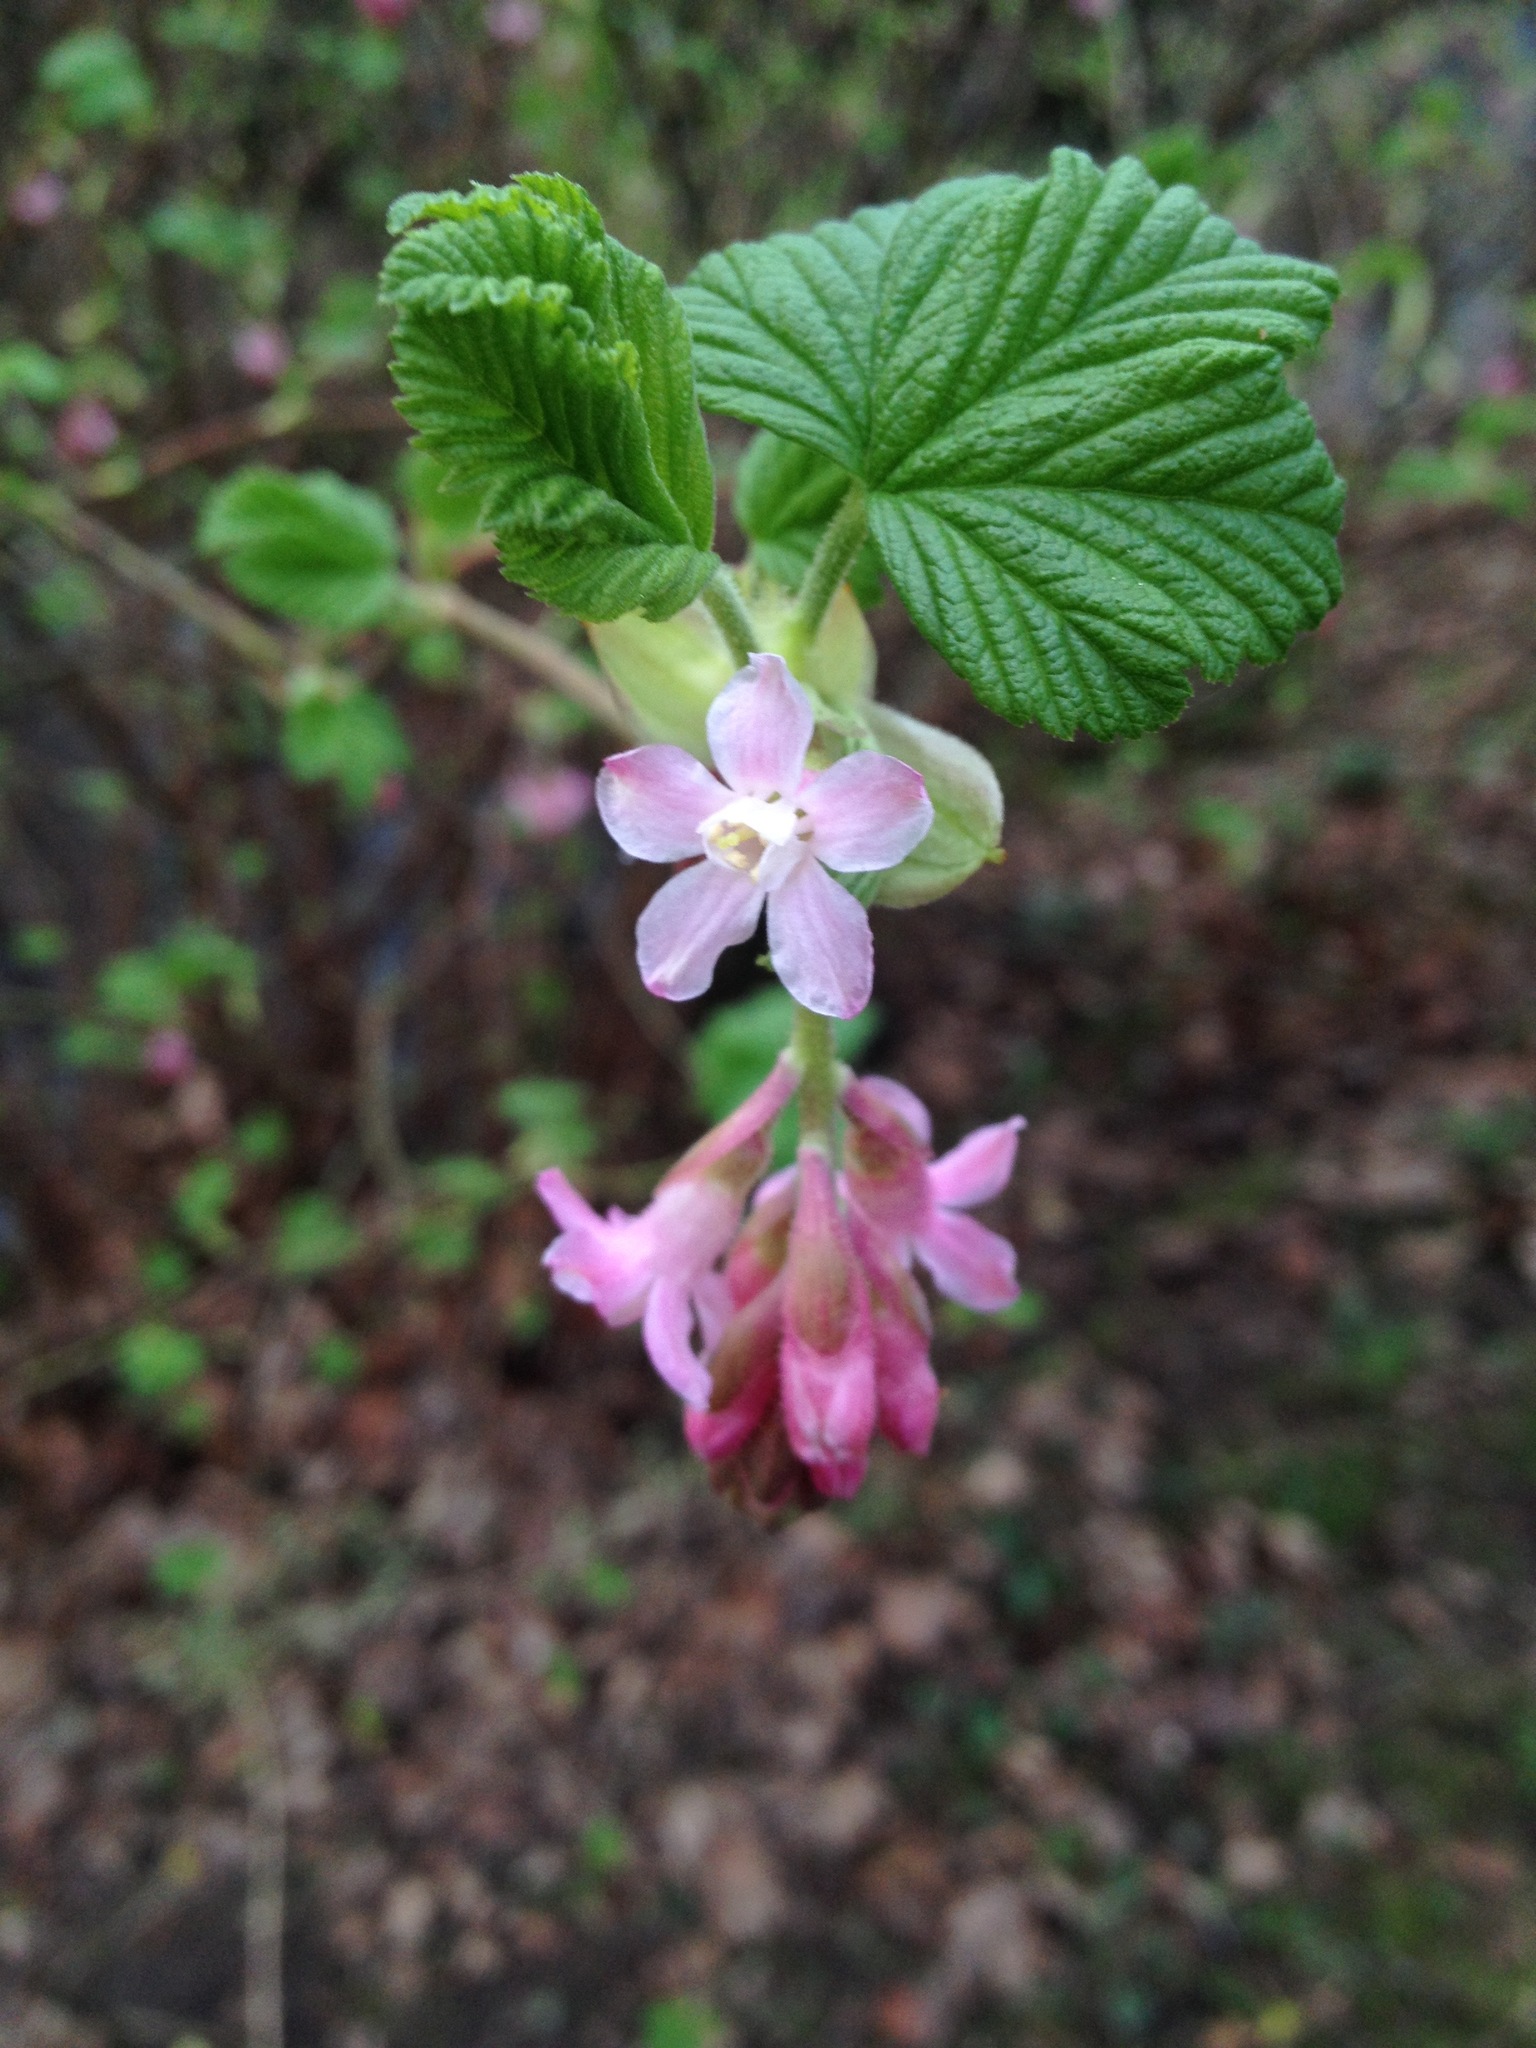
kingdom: Plantae
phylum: Tracheophyta
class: Magnoliopsida
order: Saxifragales
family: Grossulariaceae
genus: Ribes
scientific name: Ribes sanguineum
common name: Flowering currant
